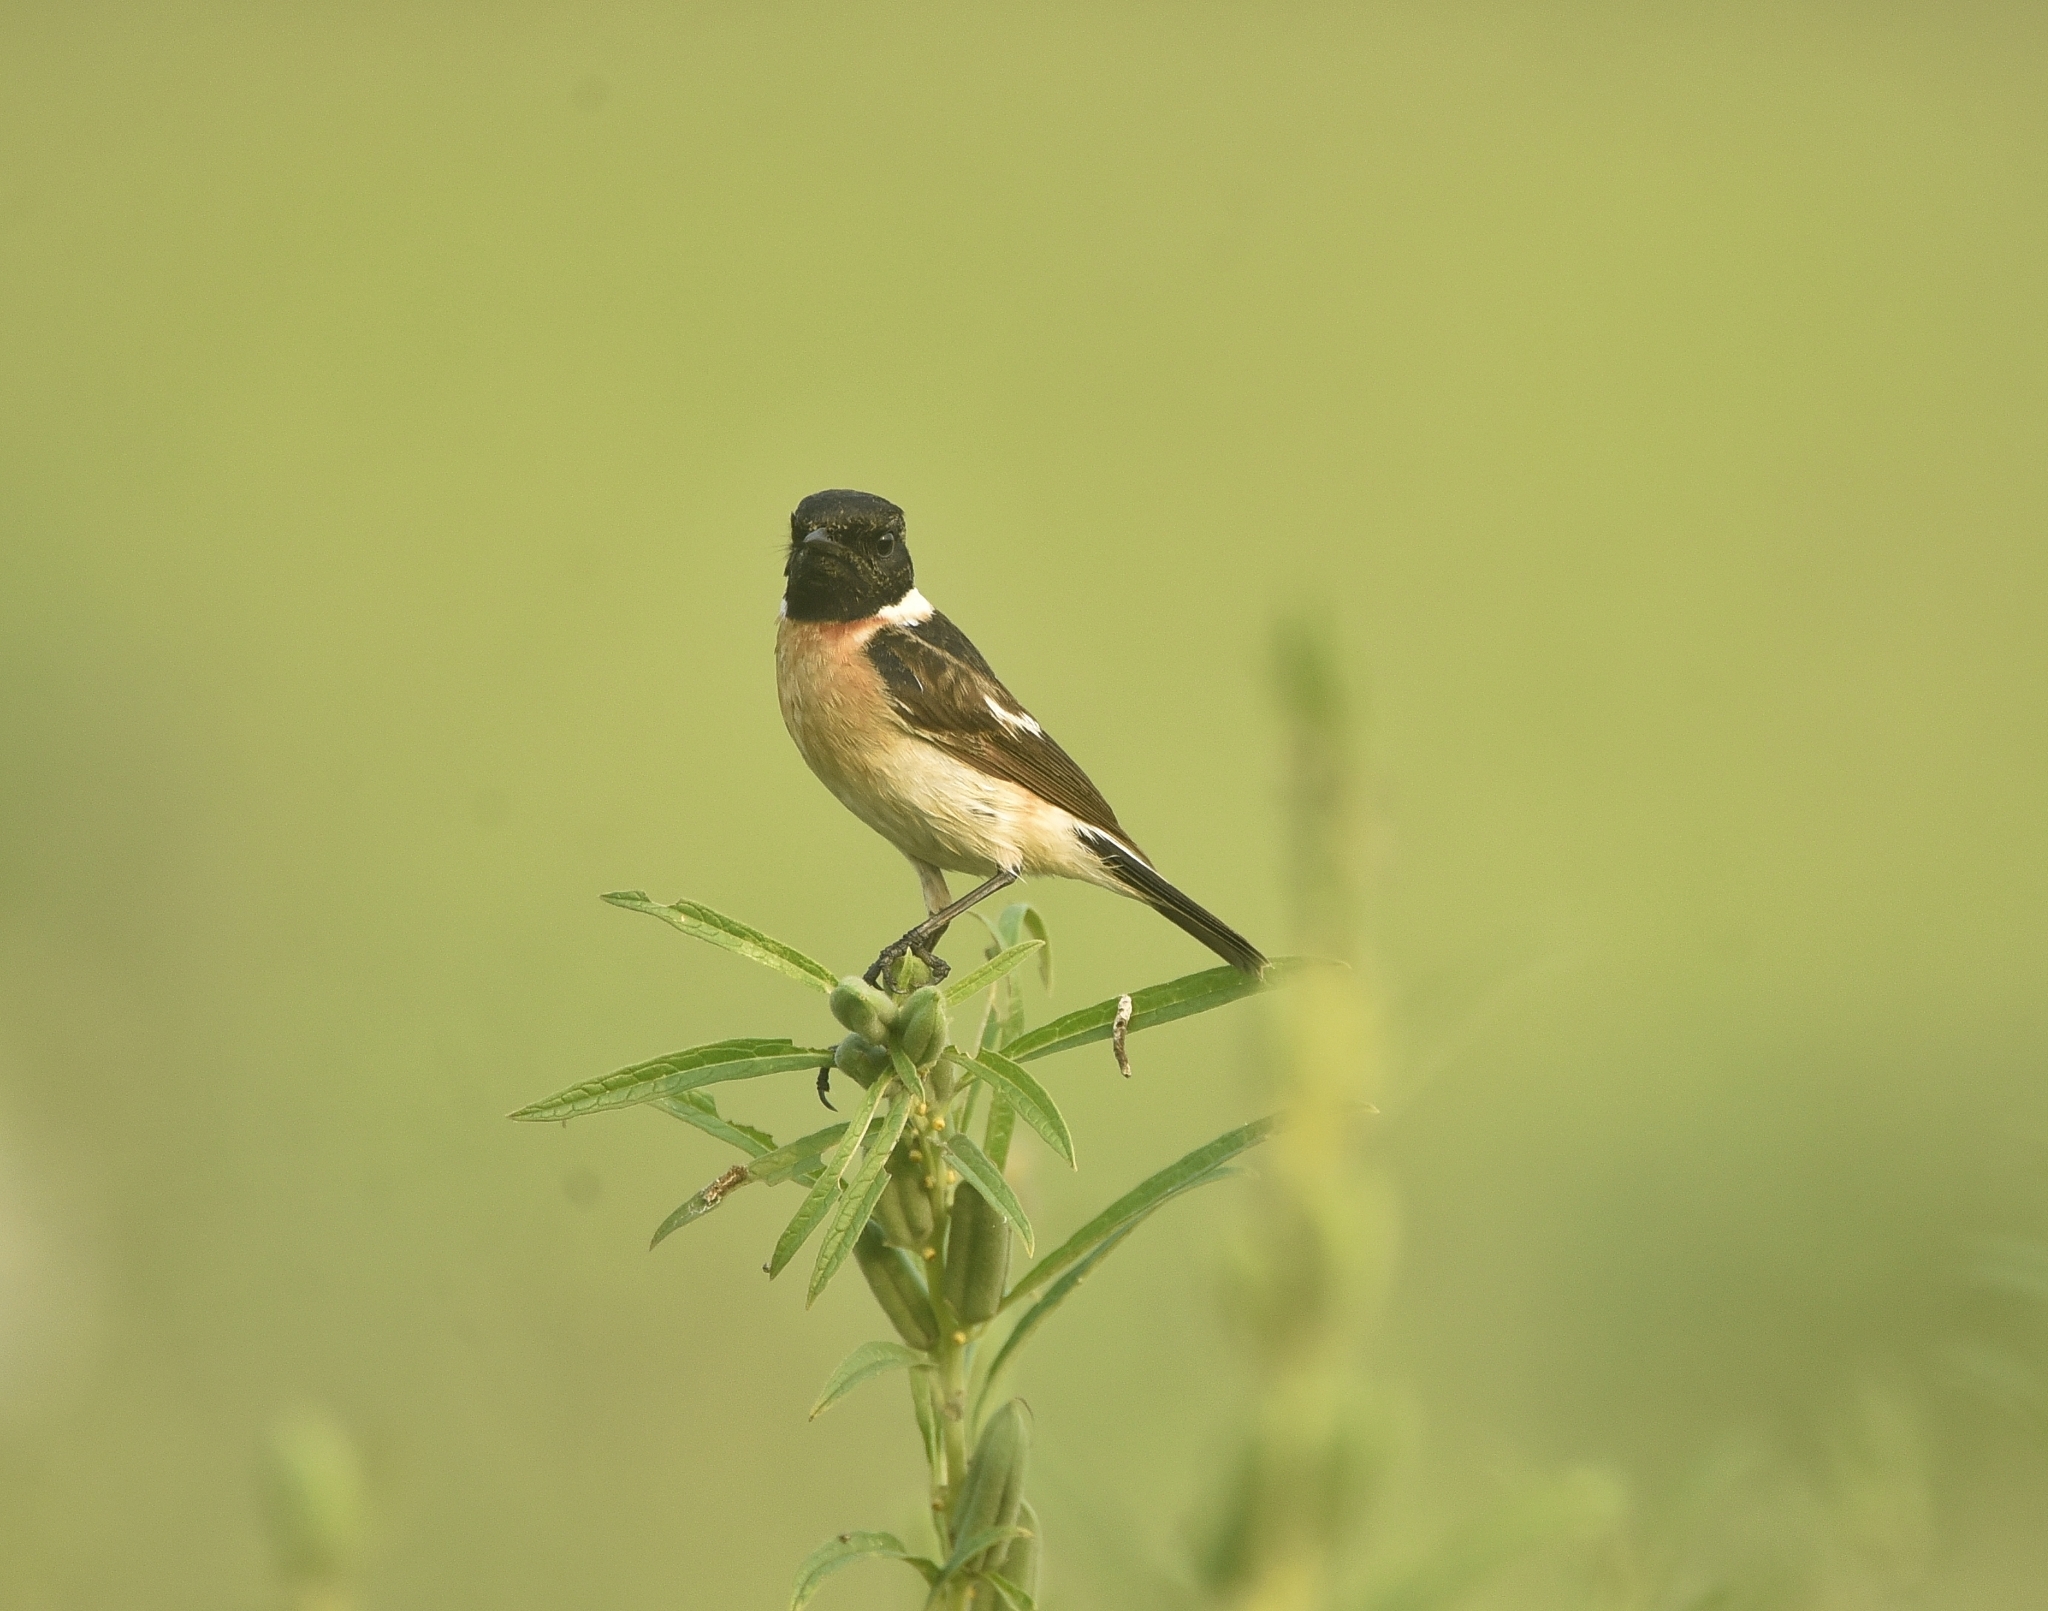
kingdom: Animalia
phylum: Chordata
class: Aves
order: Passeriformes
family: Muscicapidae
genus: Saxicola
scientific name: Saxicola maurus
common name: Siberian stonechat
